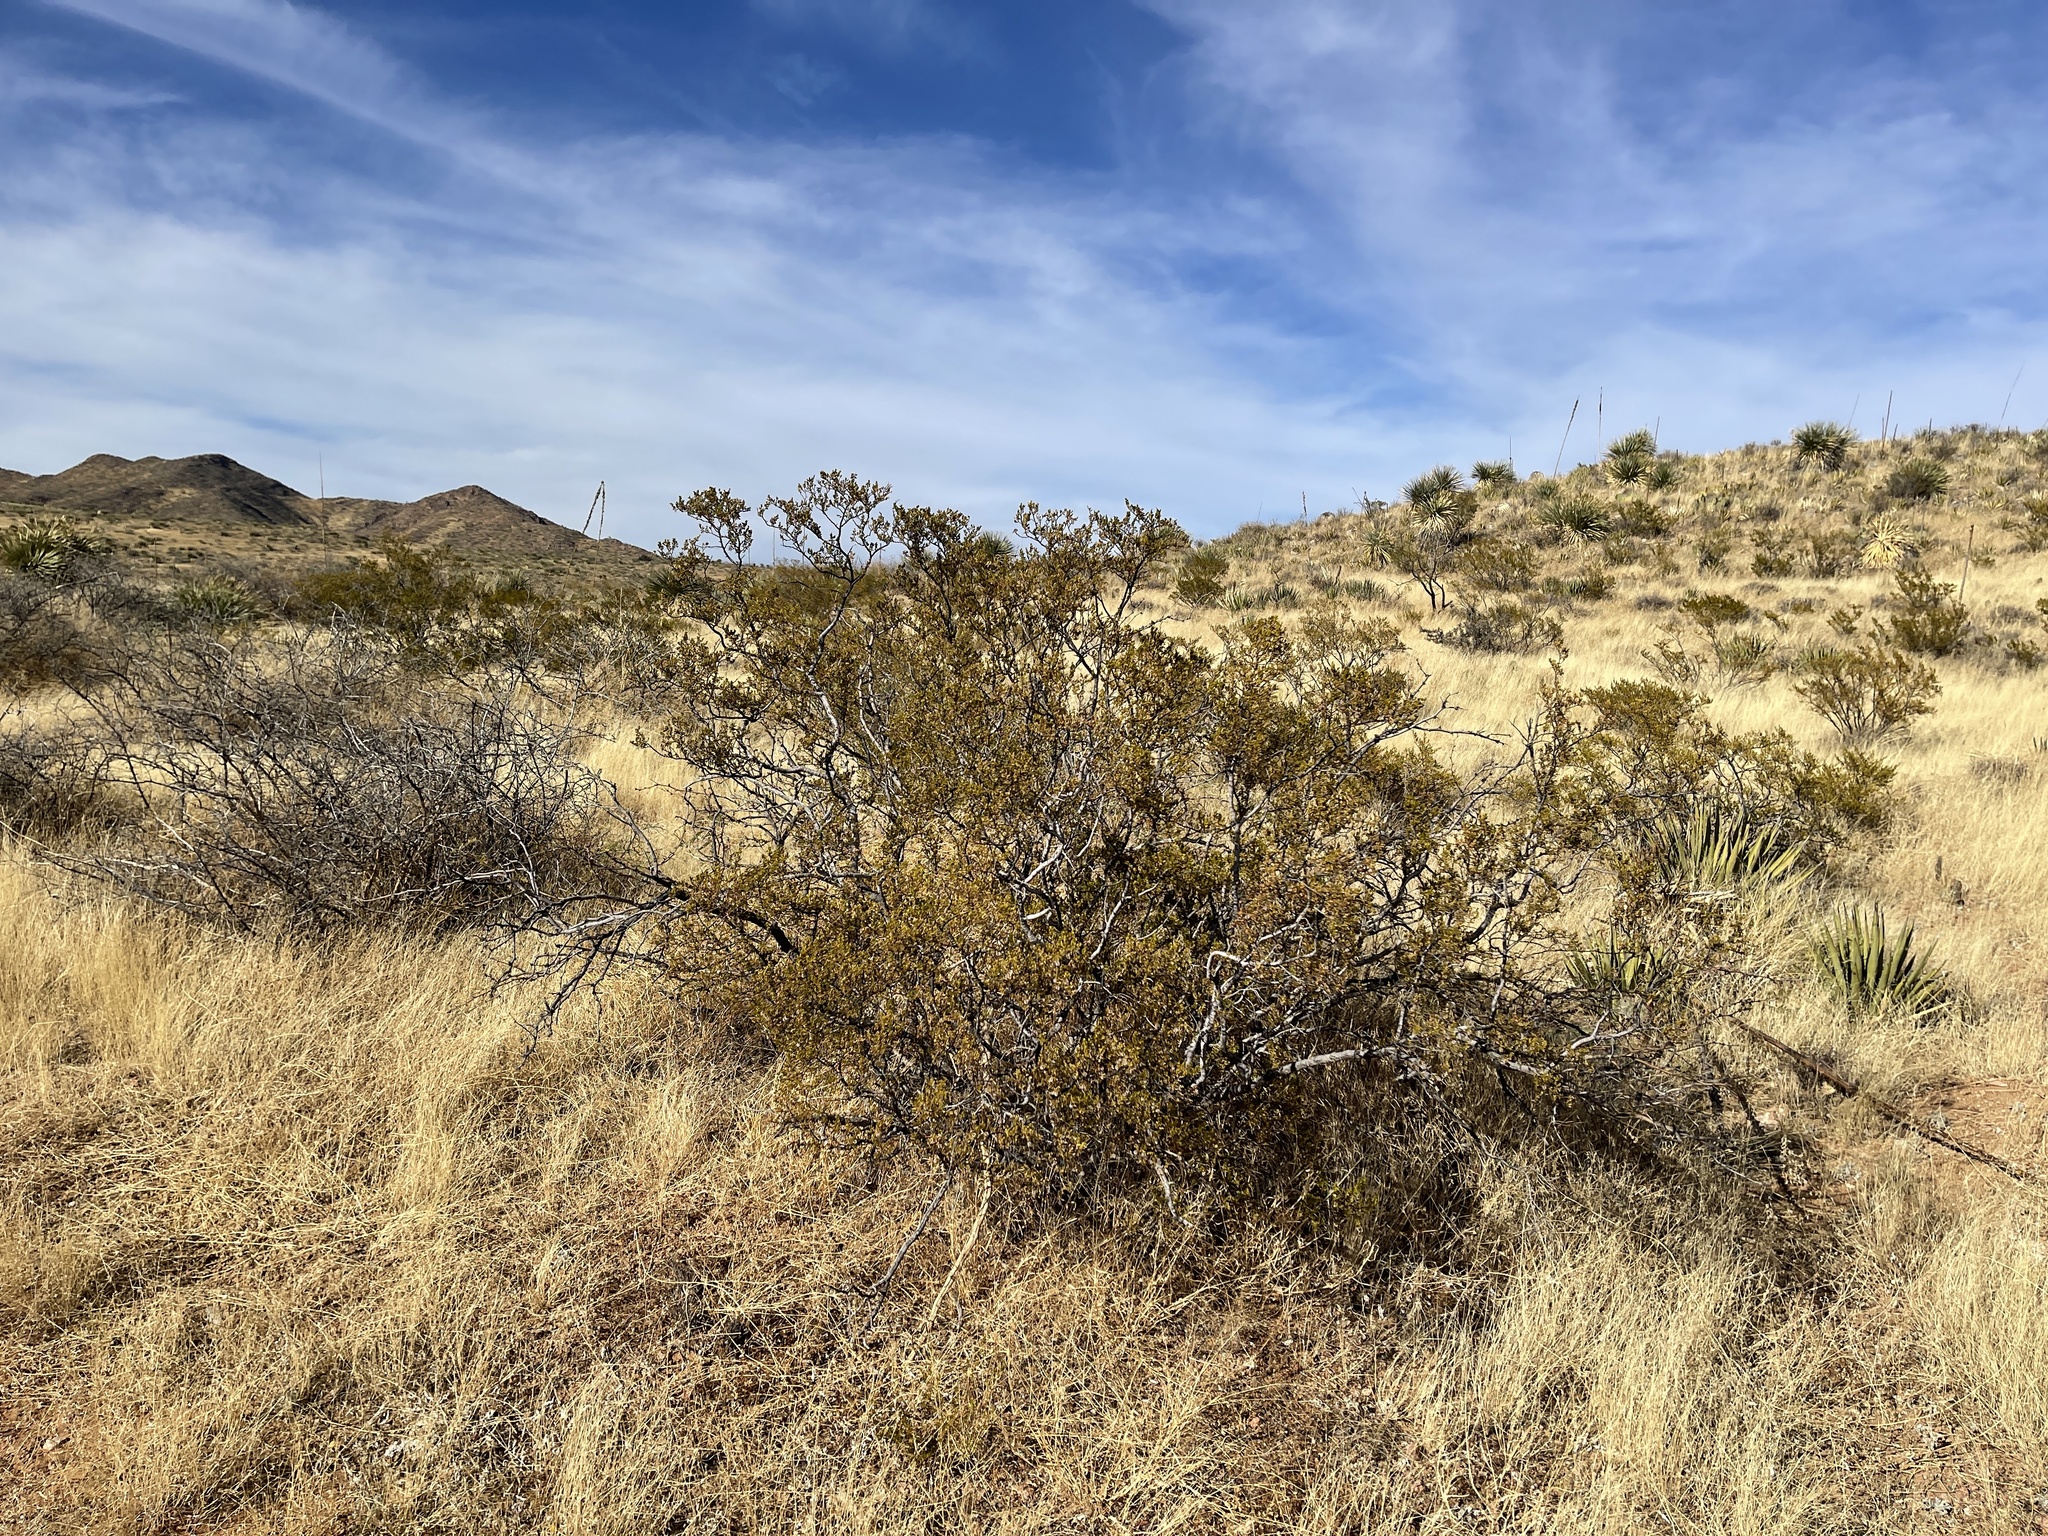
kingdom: Plantae
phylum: Tracheophyta
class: Magnoliopsida
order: Zygophyllales
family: Zygophyllaceae
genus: Larrea
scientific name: Larrea tridentata
